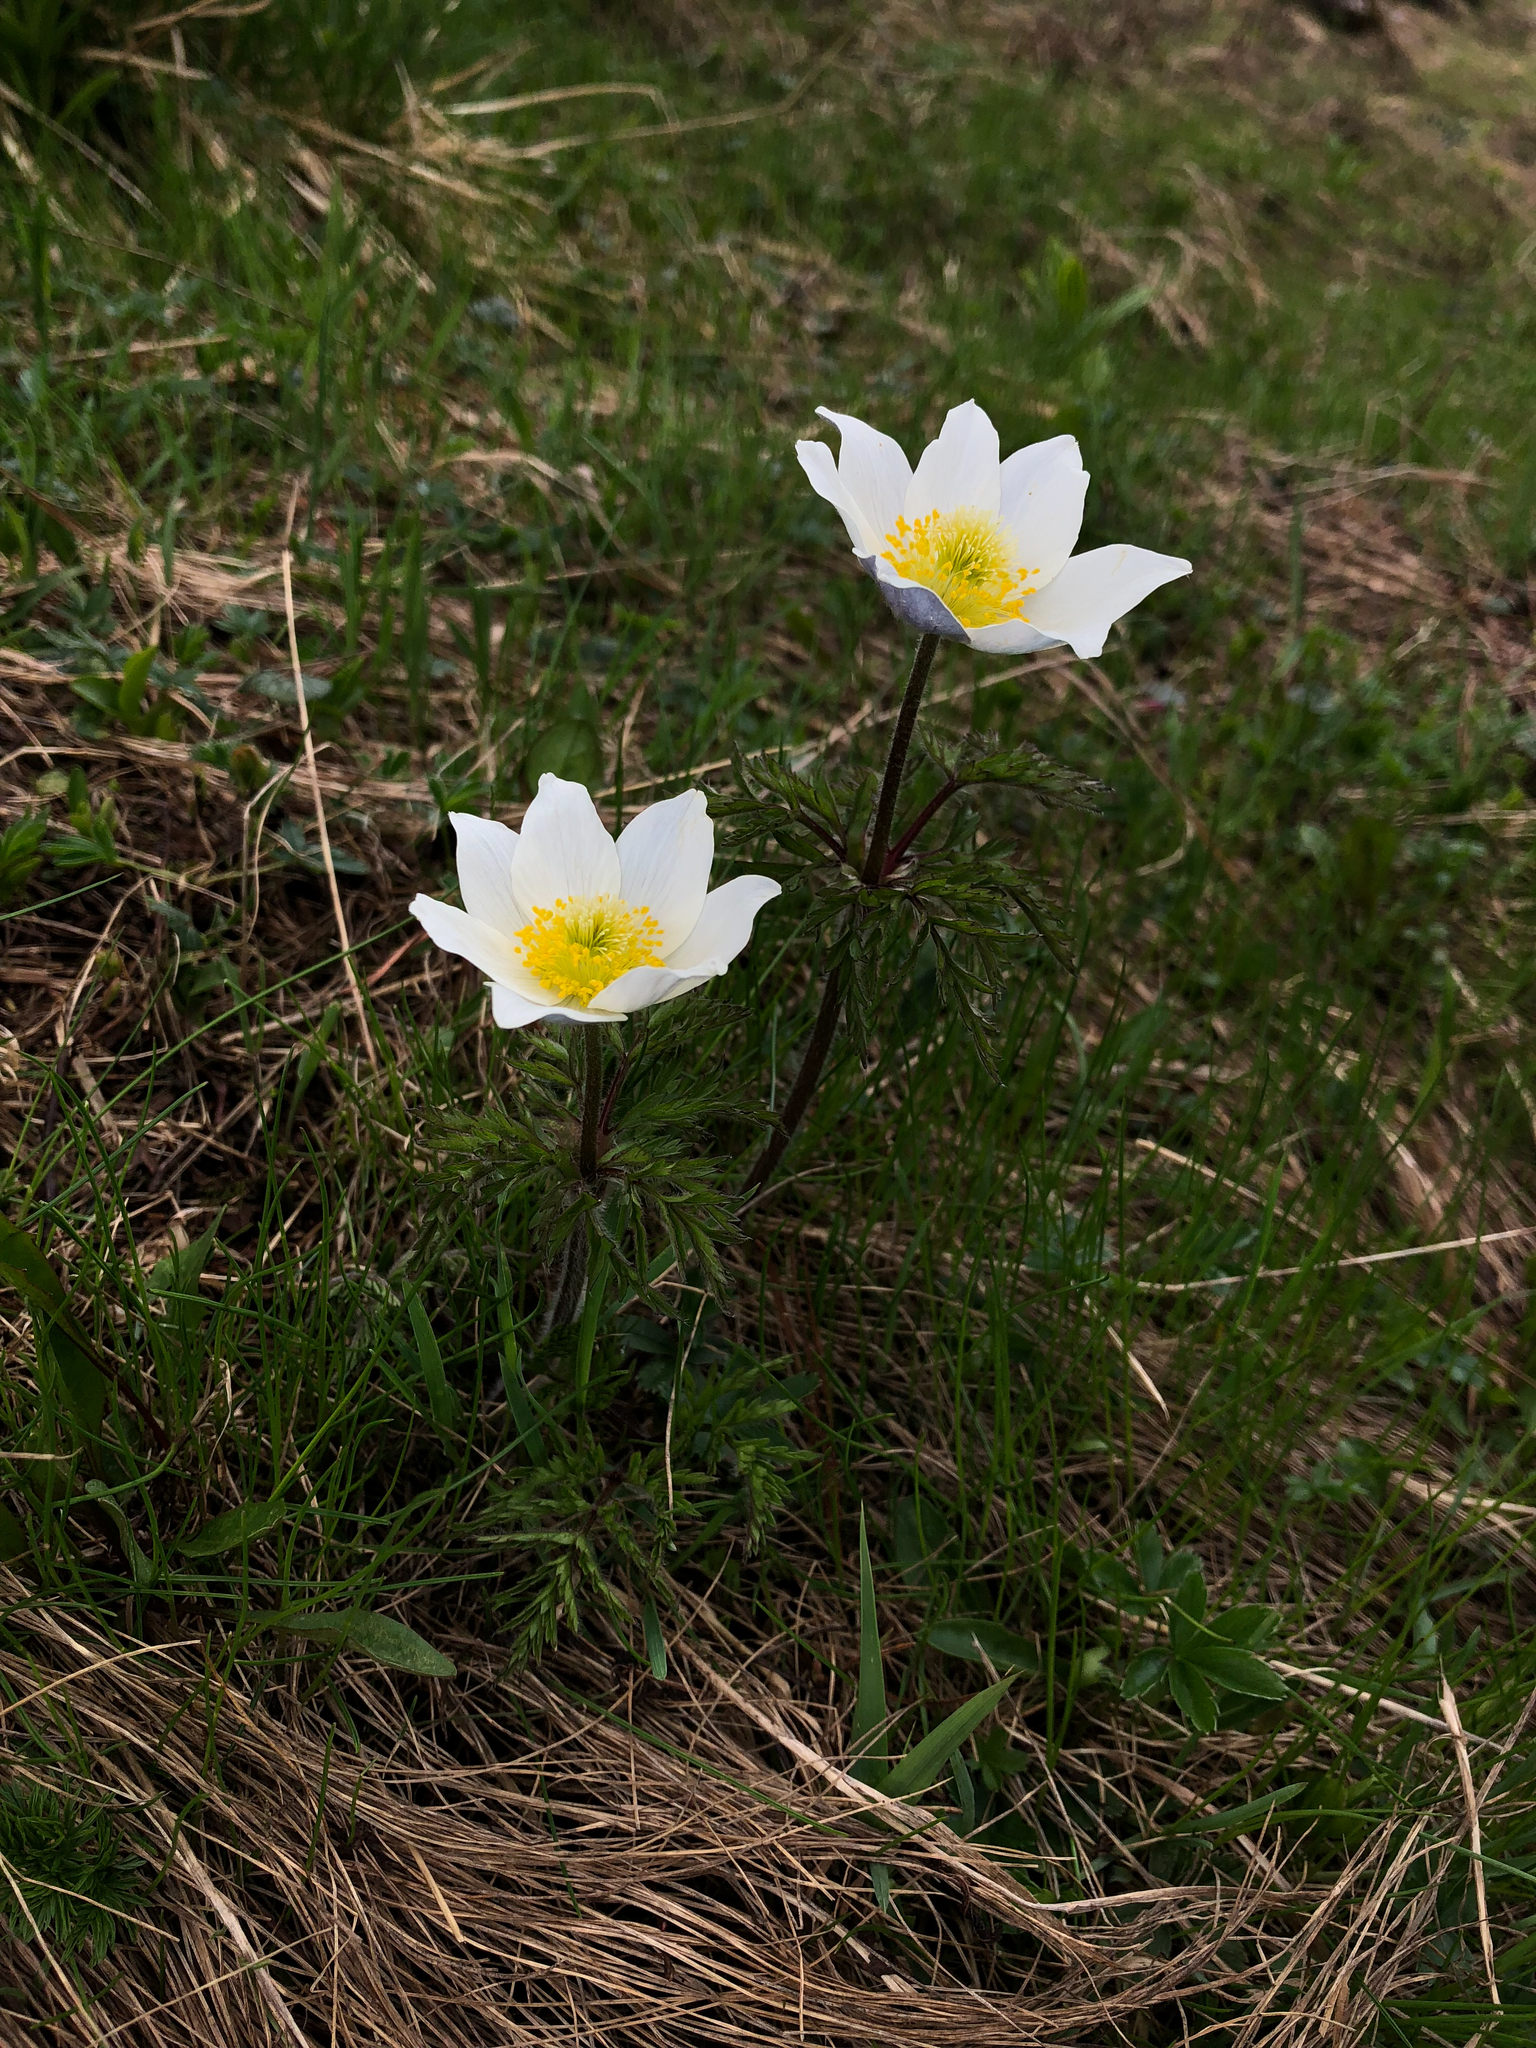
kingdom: Plantae
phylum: Tracheophyta
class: Magnoliopsida
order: Ranunculales
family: Ranunculaceae
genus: Pulsatilla
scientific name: Pulsatilla alpina
